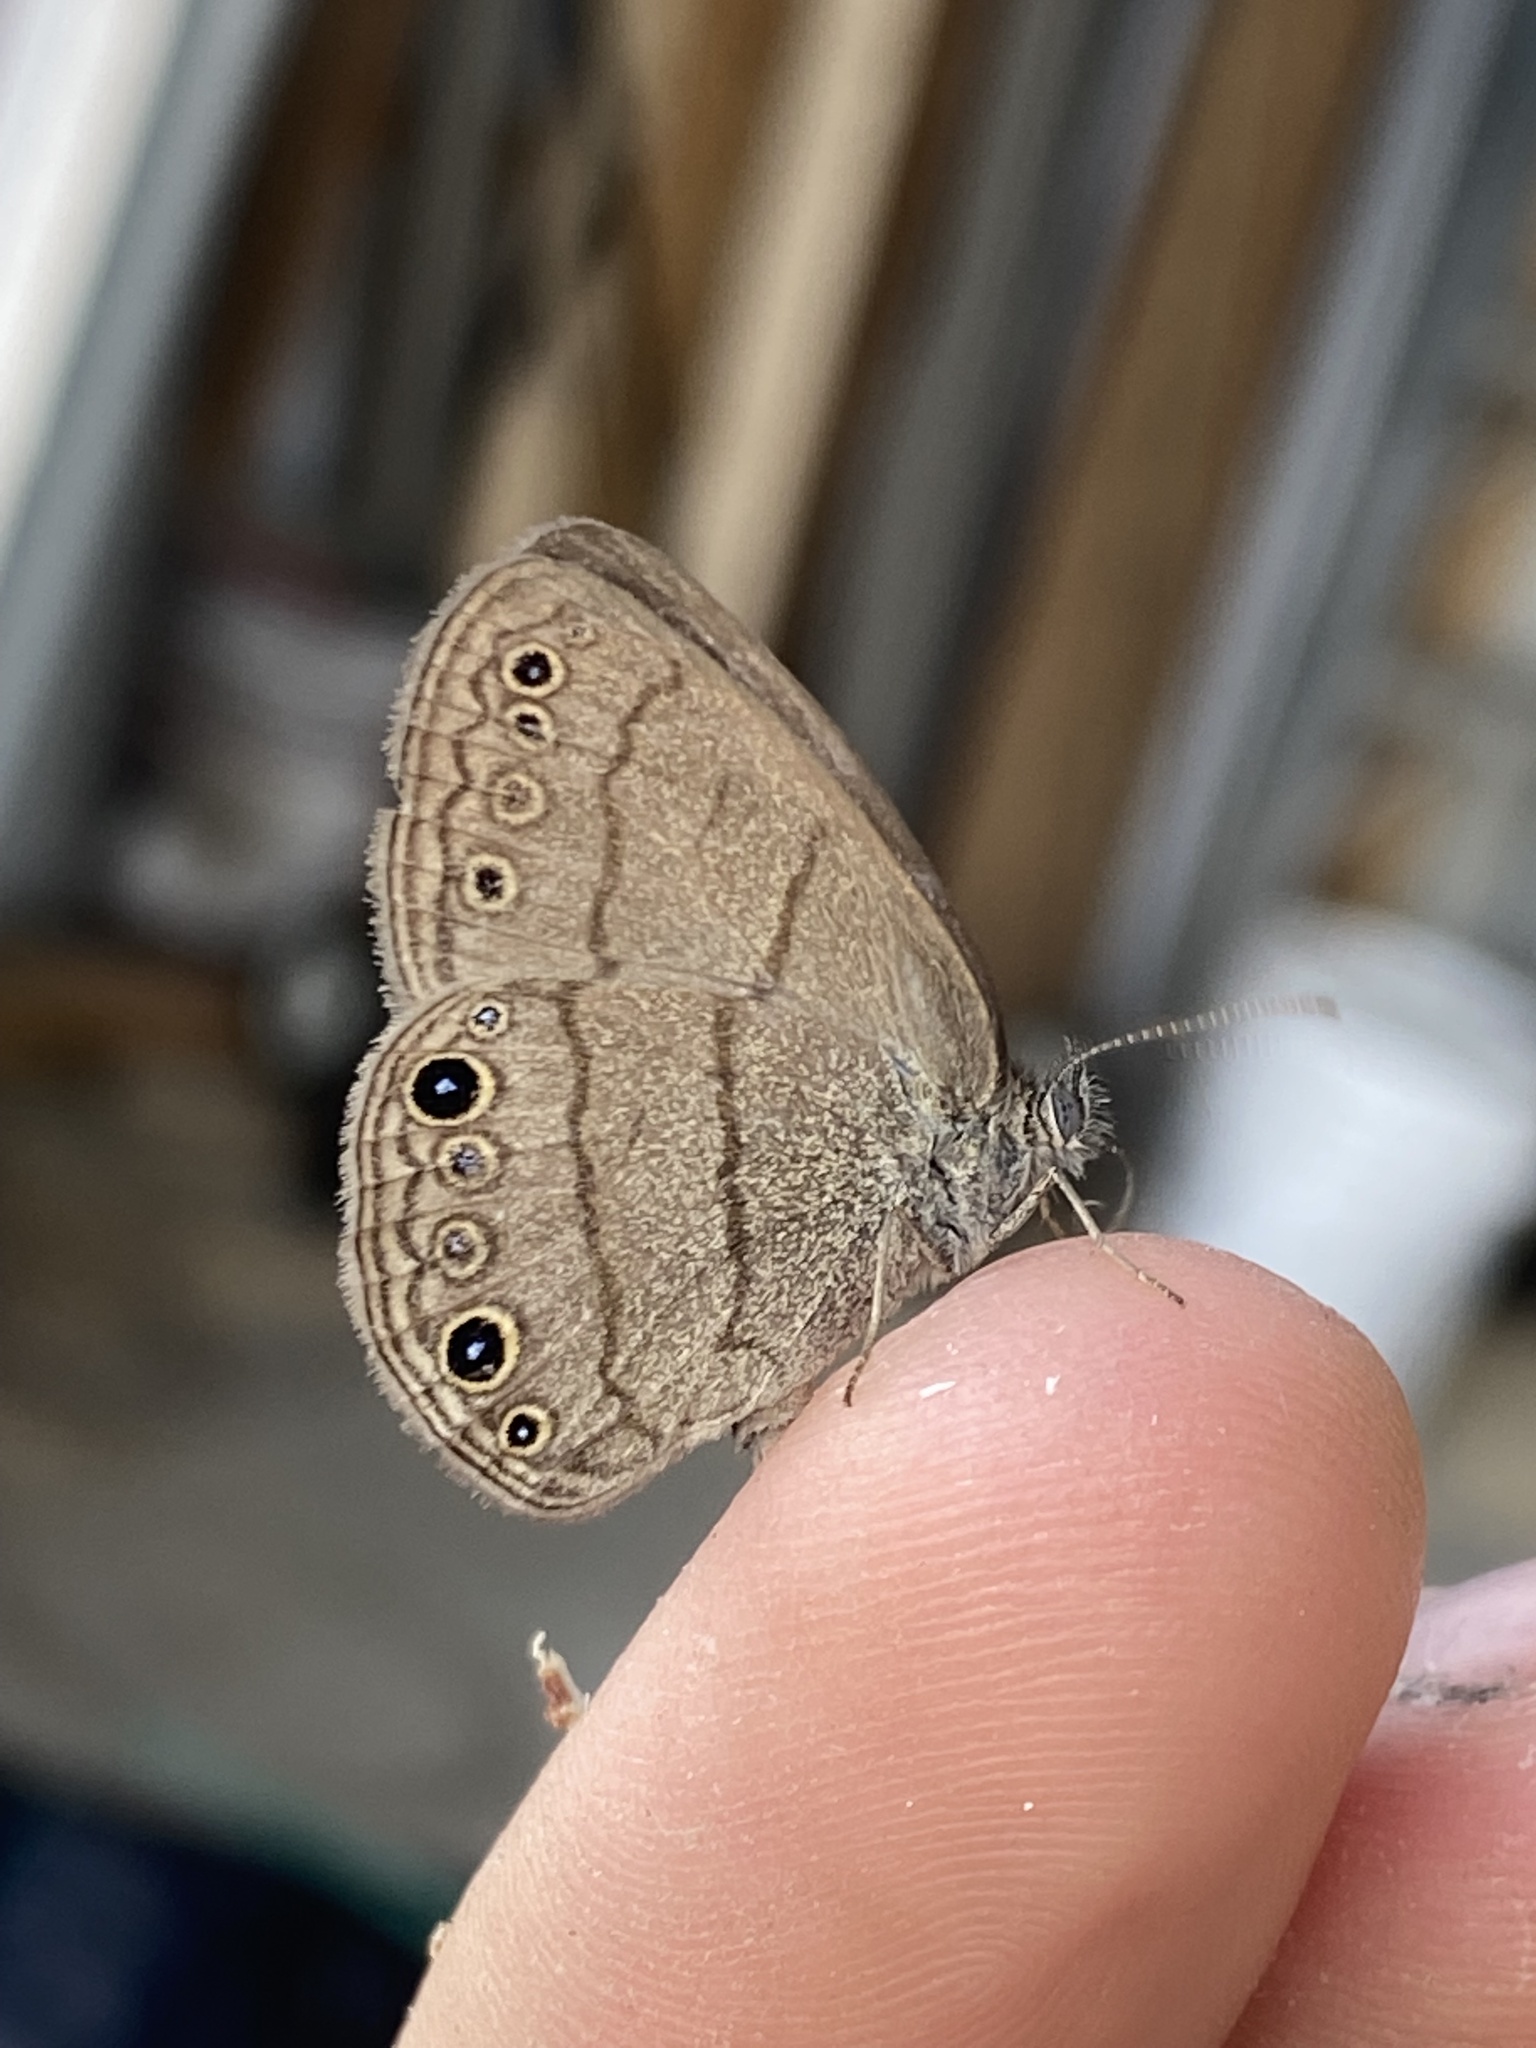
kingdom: Animalia
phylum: Arthropoda
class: Insecta
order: Lepidoptera
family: Nymphalidae
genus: Hermeuptychia
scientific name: Hermeuptychia hermes
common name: Hermes satyr
